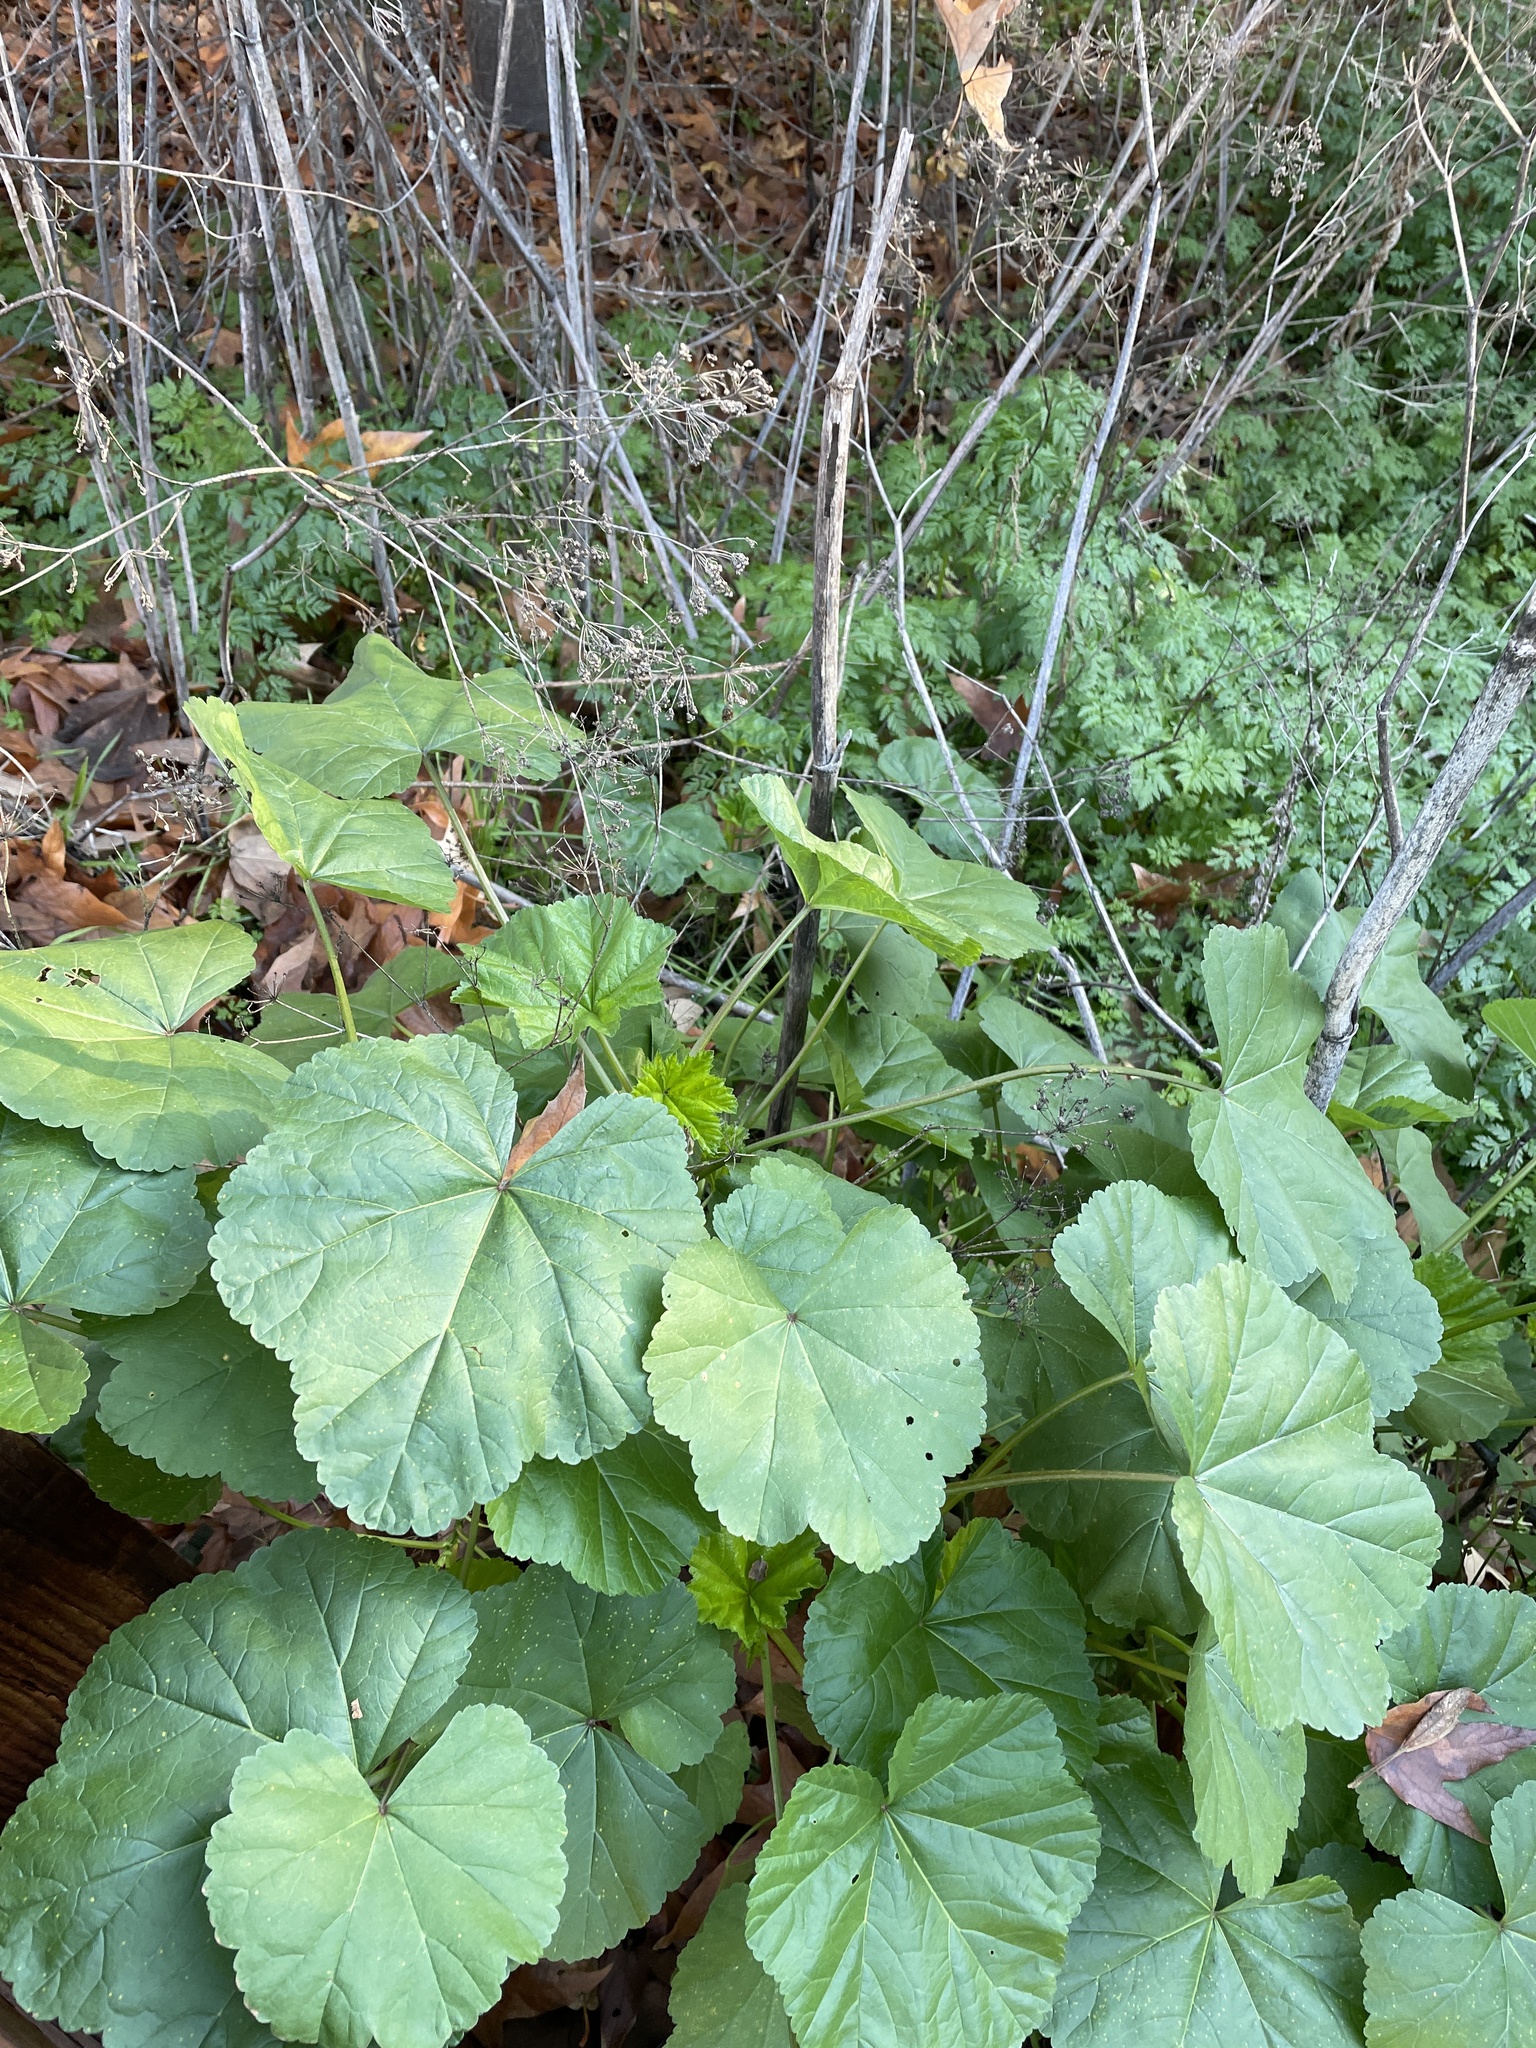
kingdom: Plantae
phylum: Tracheophyta
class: Magnoliopsida
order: Malvales
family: Malvaceae
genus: Malva
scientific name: Malva
